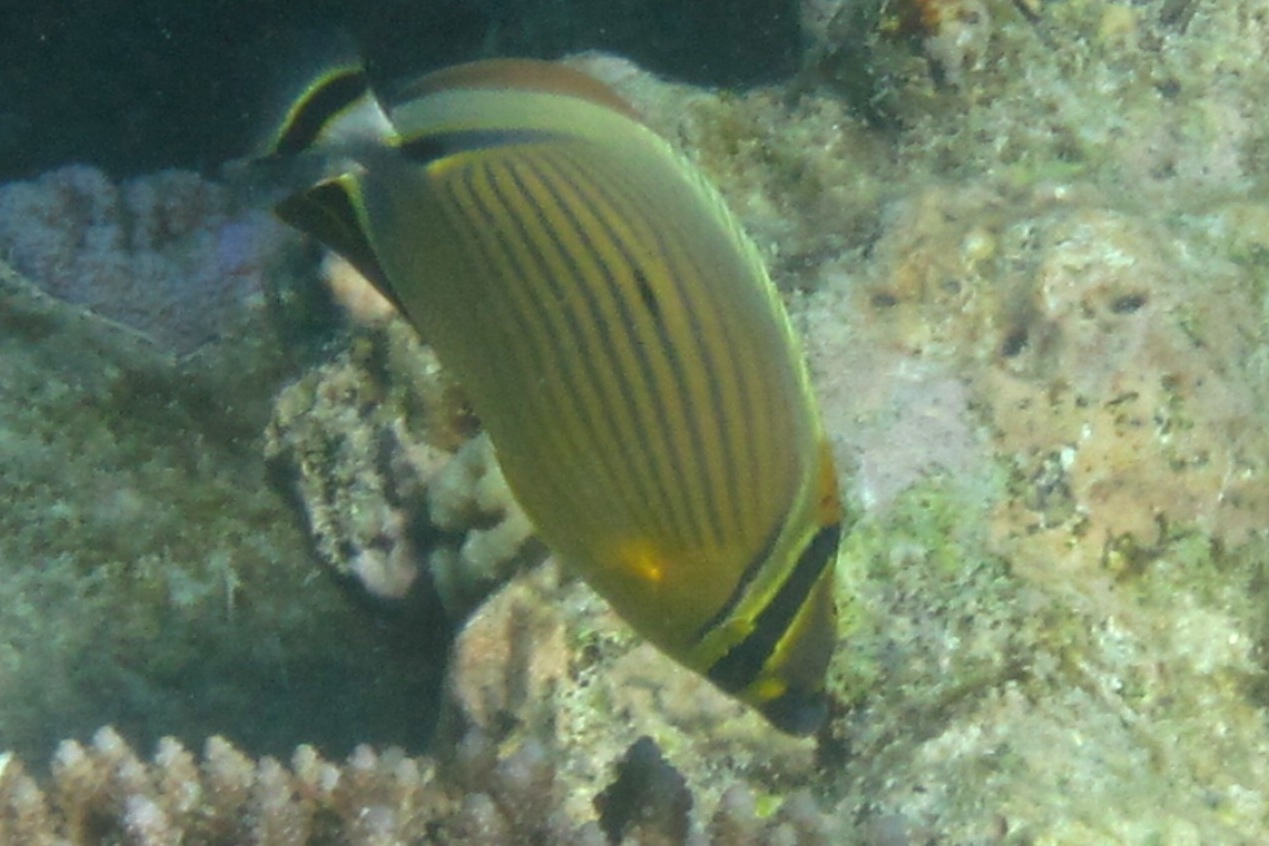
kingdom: Animalia
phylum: Chordata
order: Perciformes
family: Chaetodontidae
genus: Chaetodon
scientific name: Chaetodon lunulatus
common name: Redfin butterflyfish
